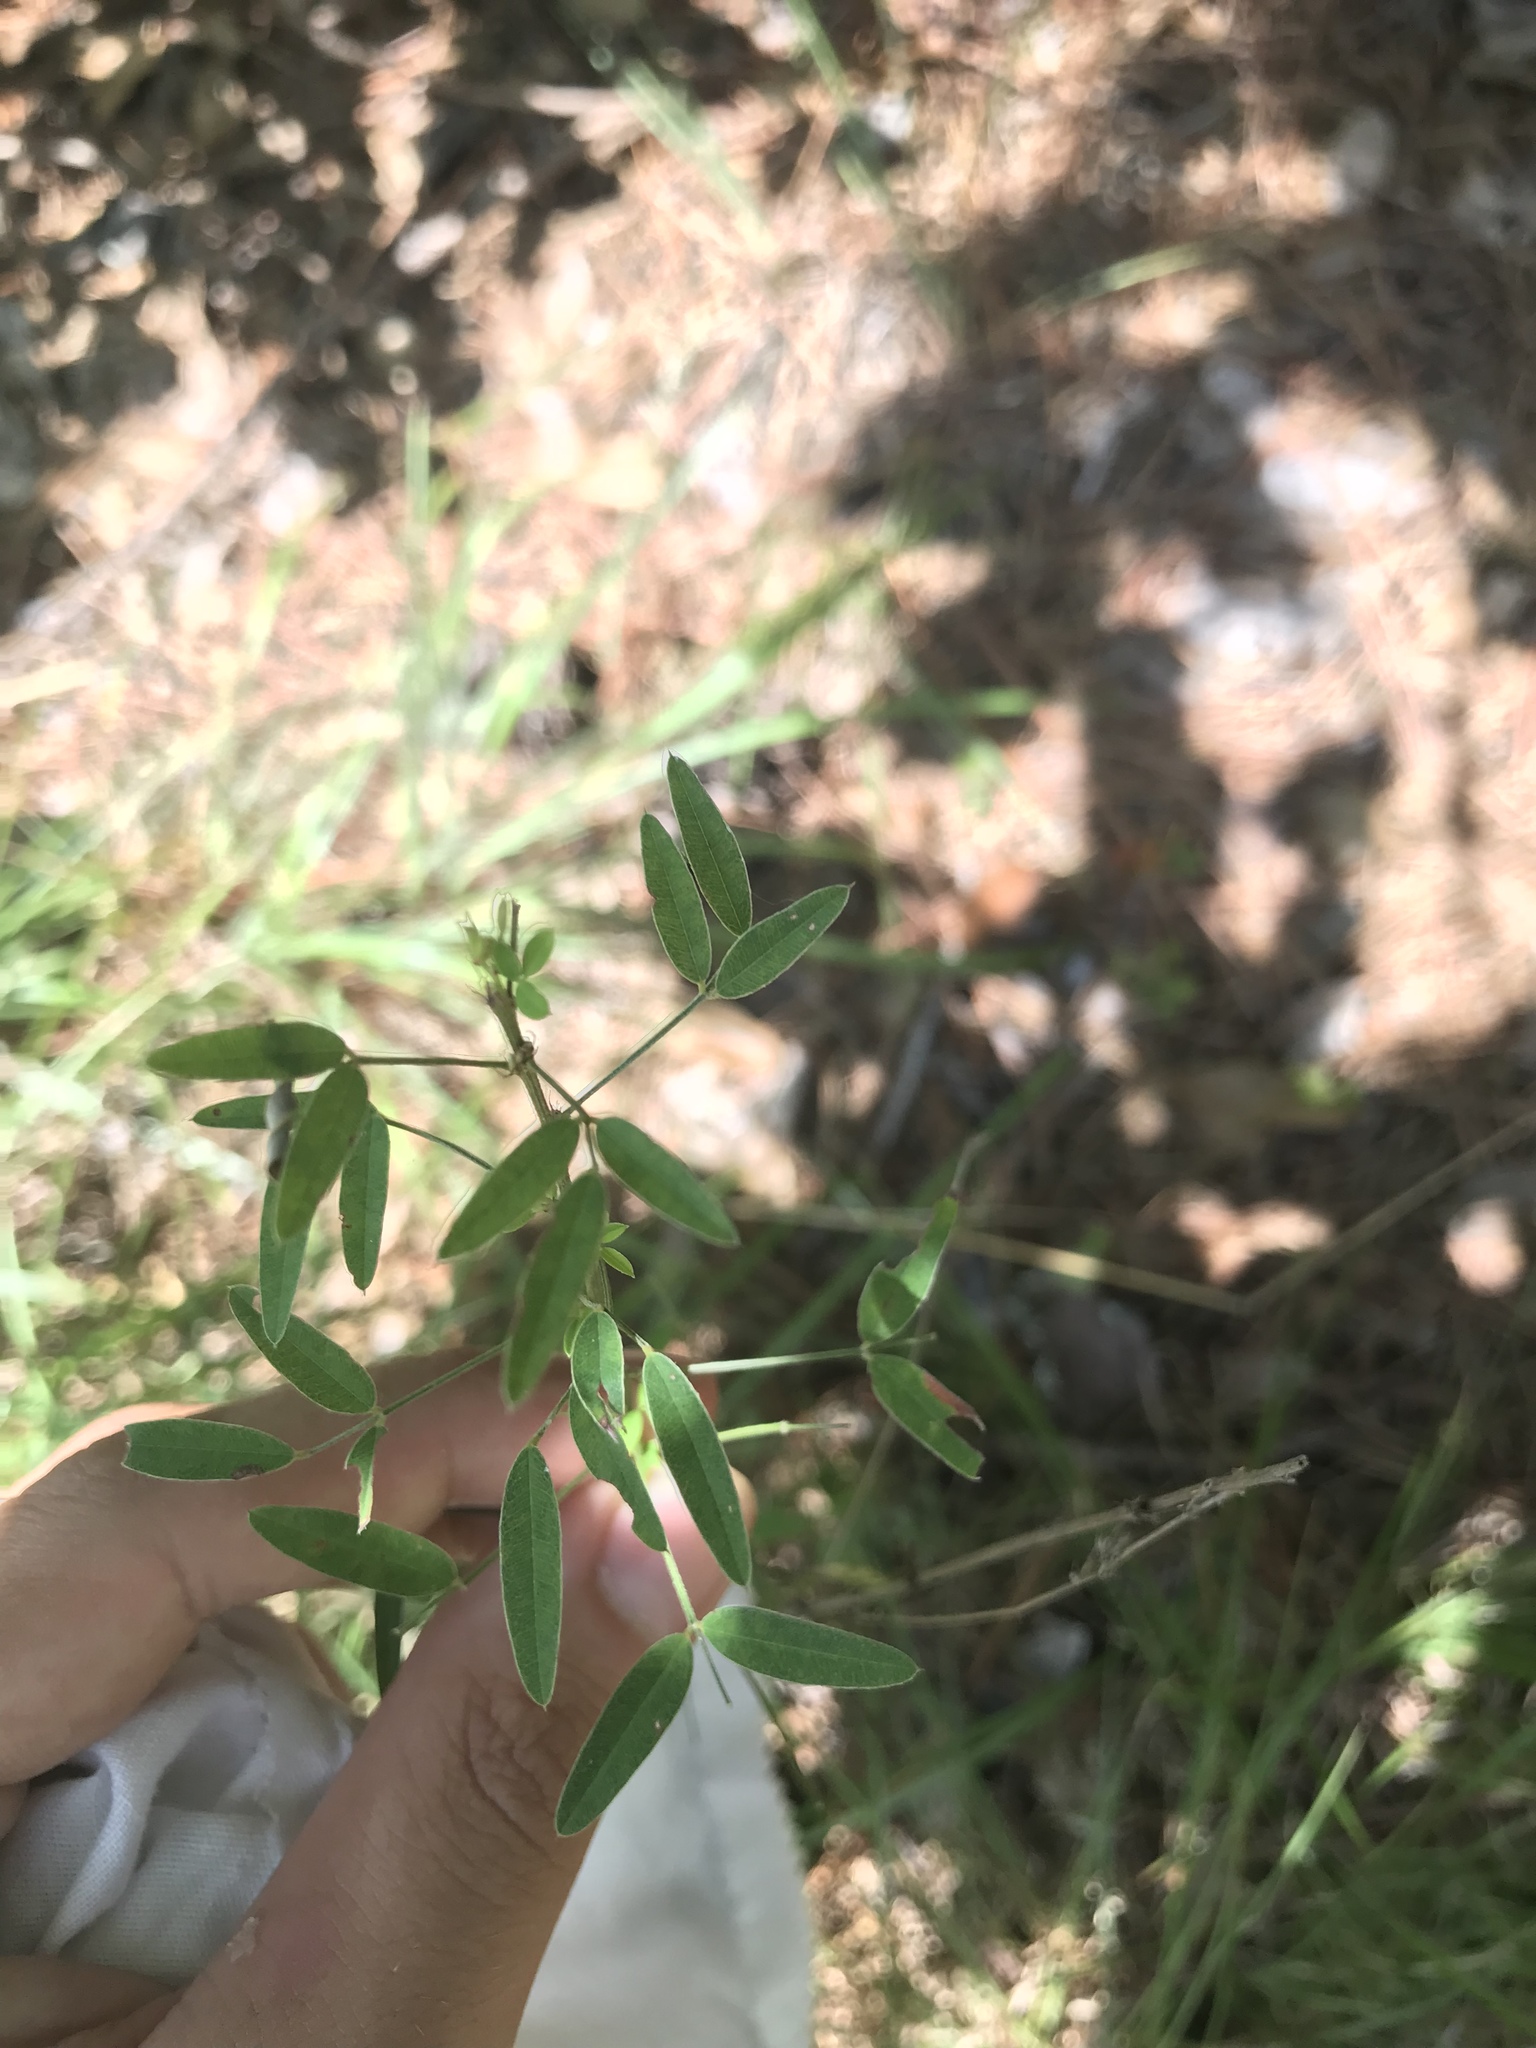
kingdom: Plantae
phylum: Tracheophyta
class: Magnoliopsida
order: Fabales
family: Fabaceae
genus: Lespedeza
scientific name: Lespedeza virginica
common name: Slender bush-clover
